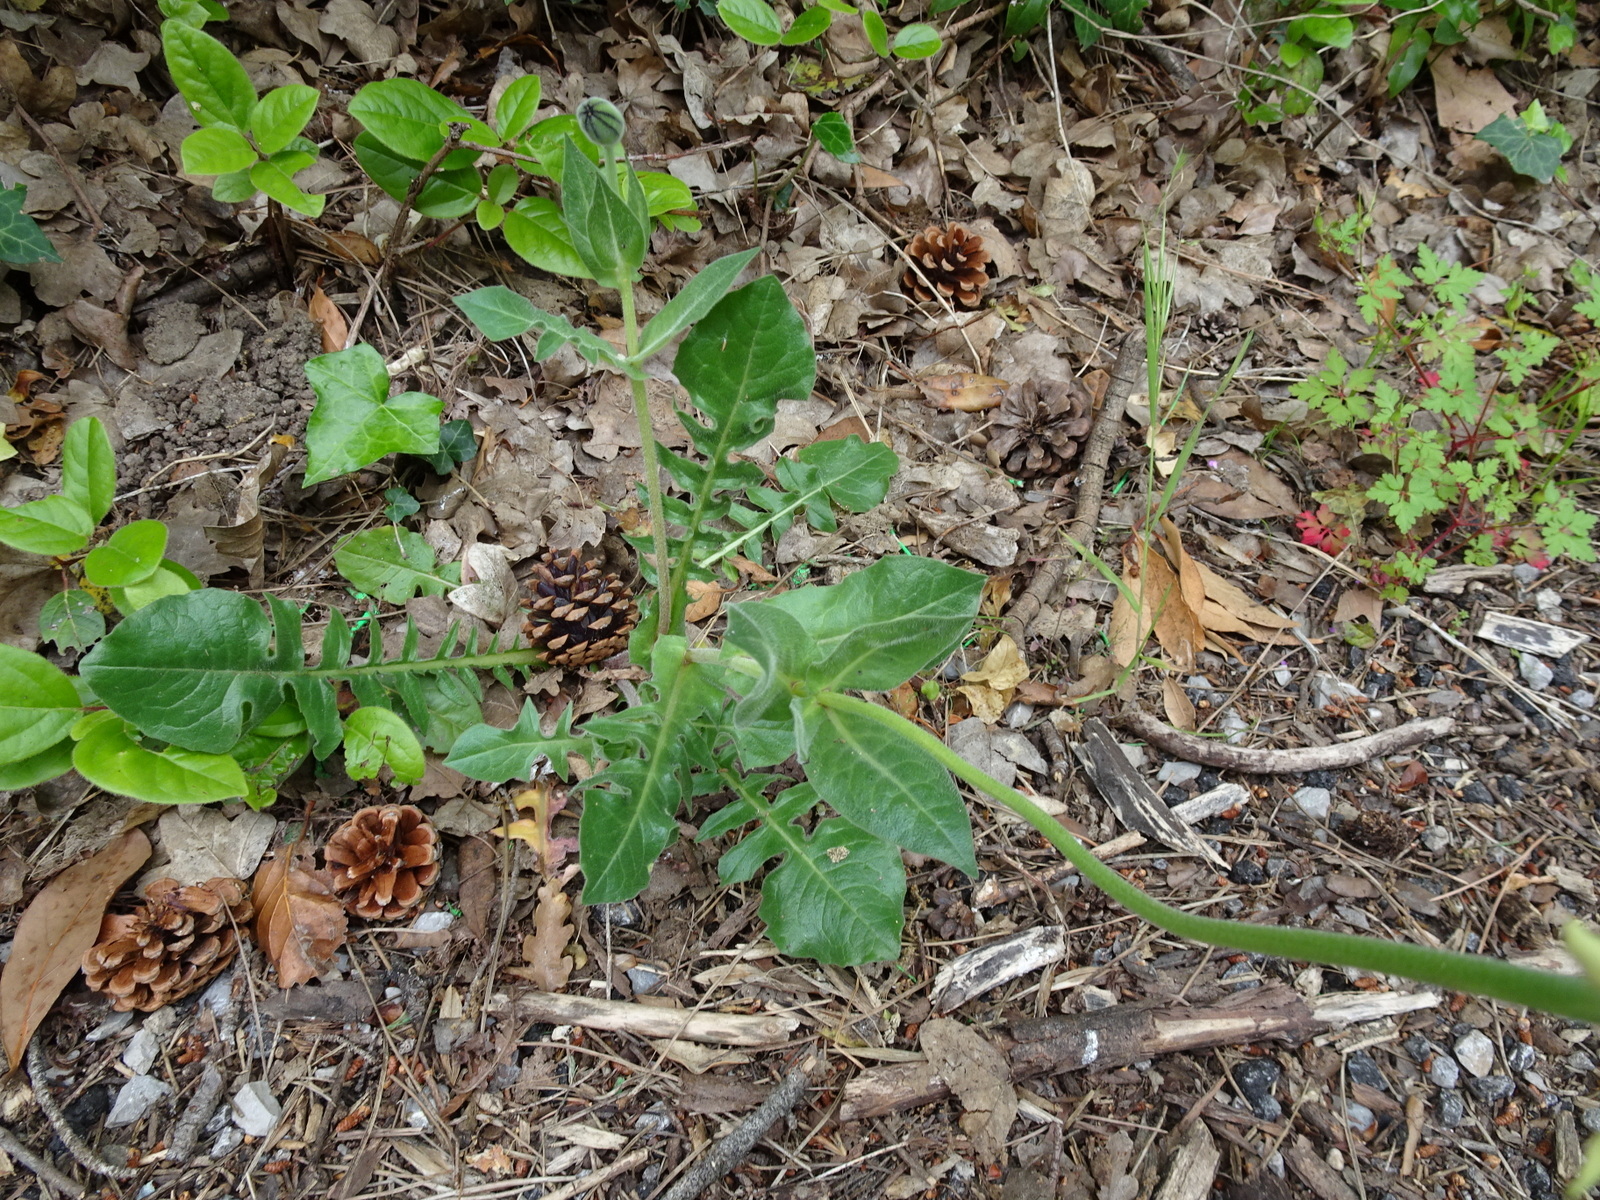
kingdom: Plantae
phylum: Tracheophyta
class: Magnoliopsida
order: Asterales
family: Asteraceae
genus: Urospermum
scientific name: Urospermum dalechampii
